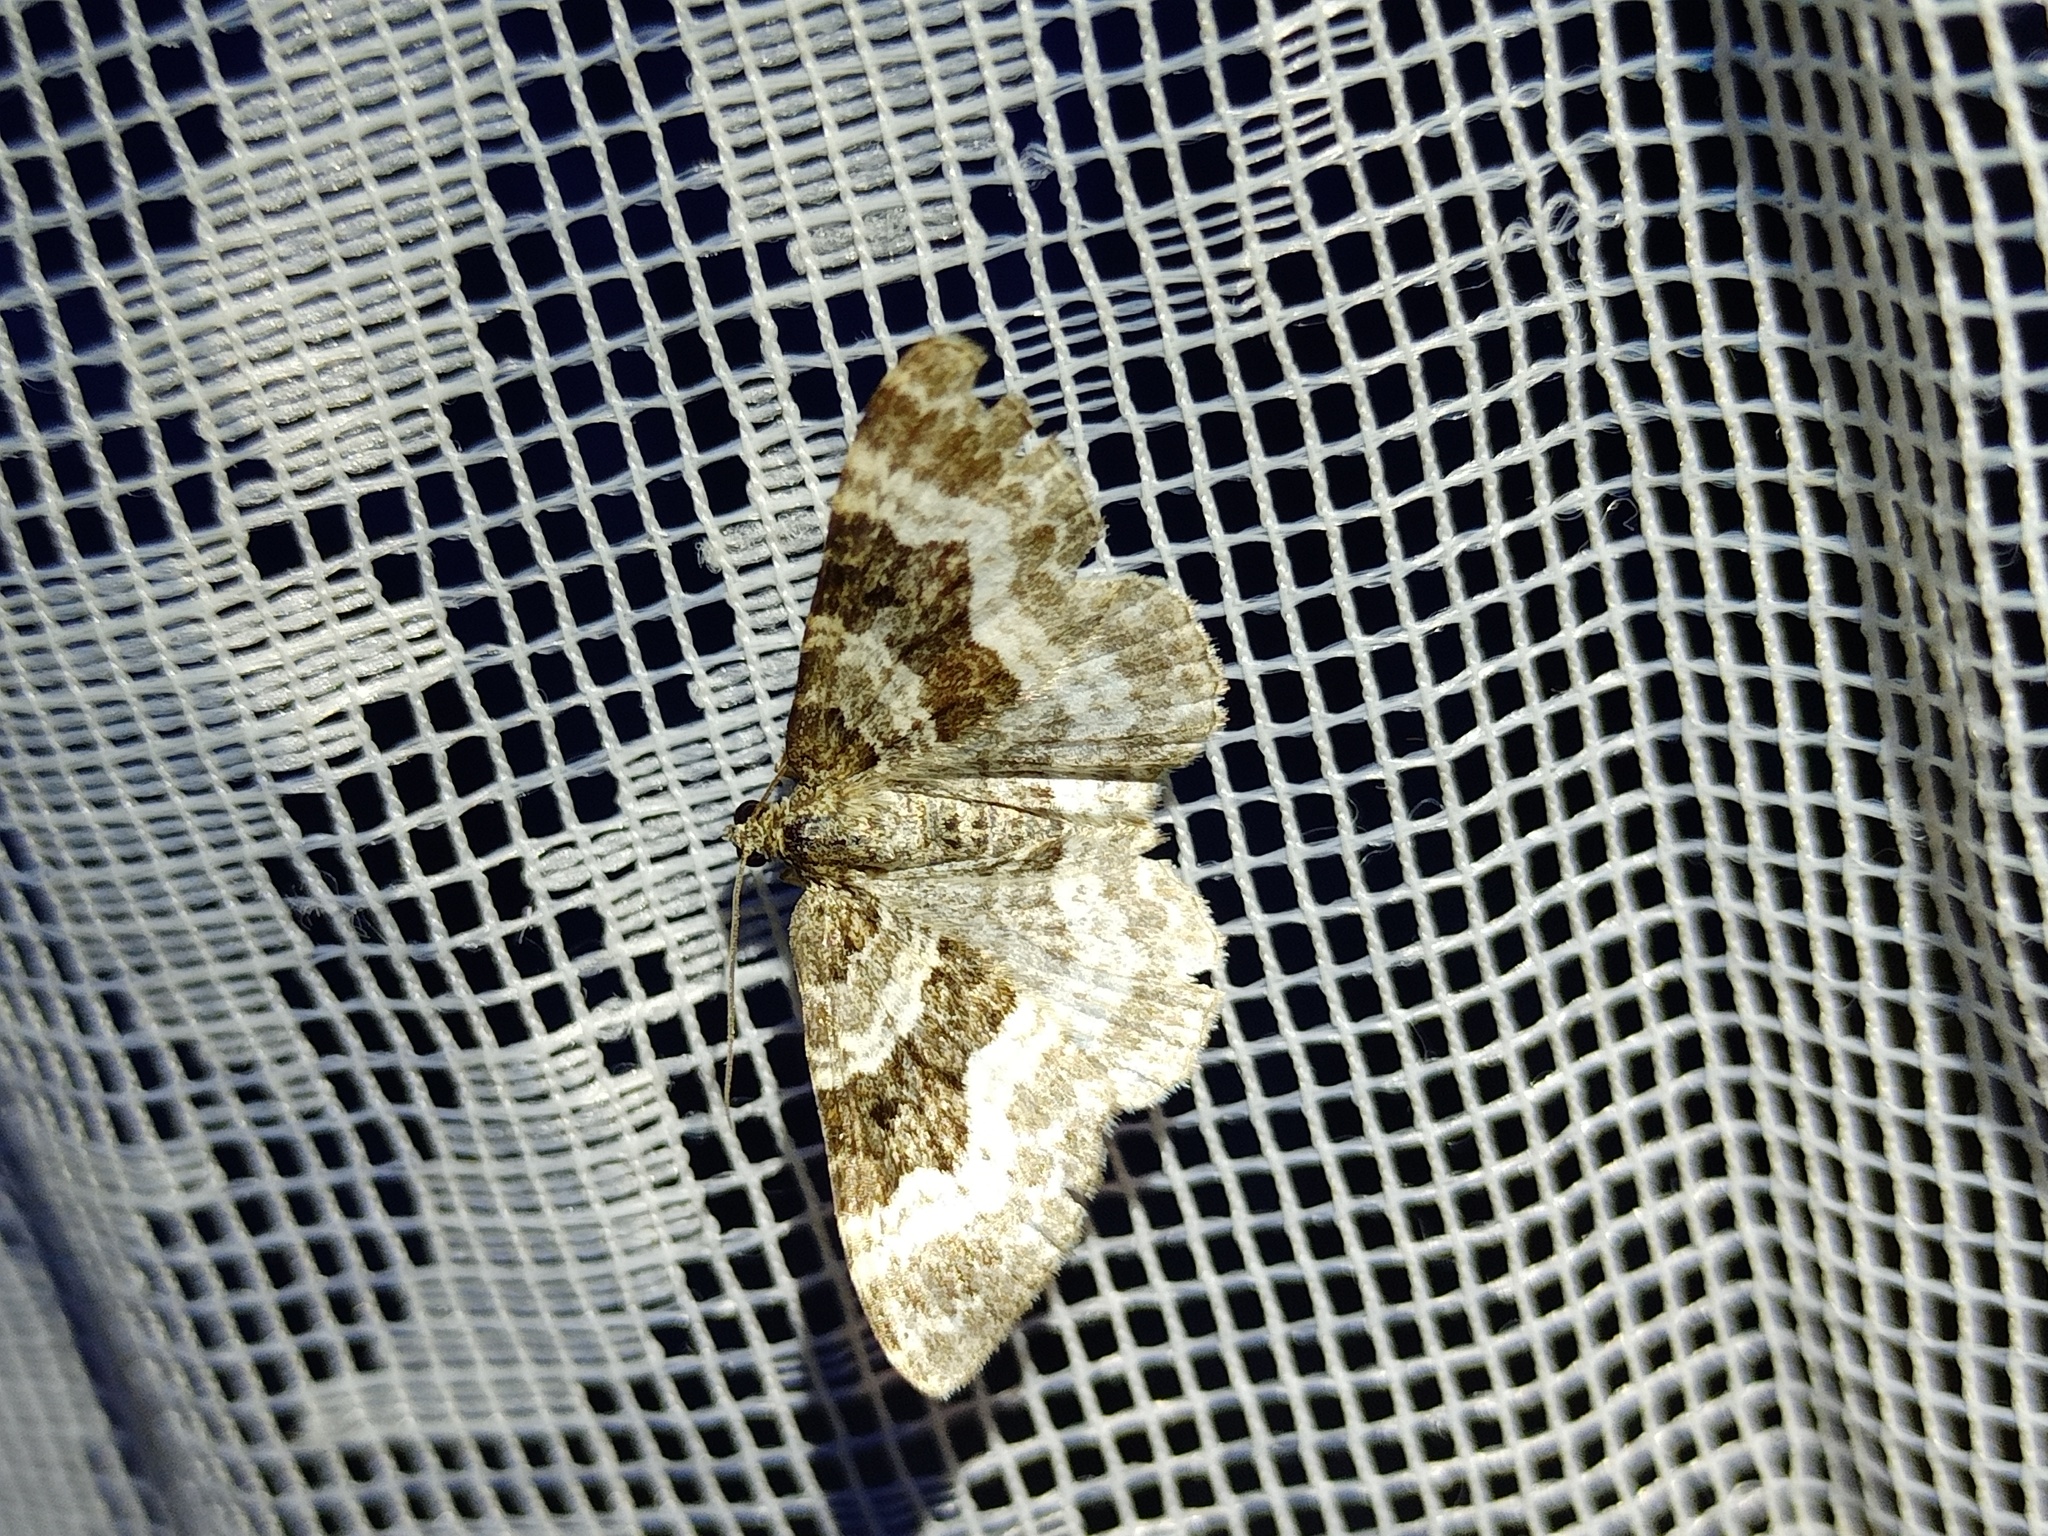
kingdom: Animalia
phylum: Arthropoda
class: Insecta
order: Lepidoptera
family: Geometridae
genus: Epirrhoe
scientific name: Epirrhoe alternata
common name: Common carpet
